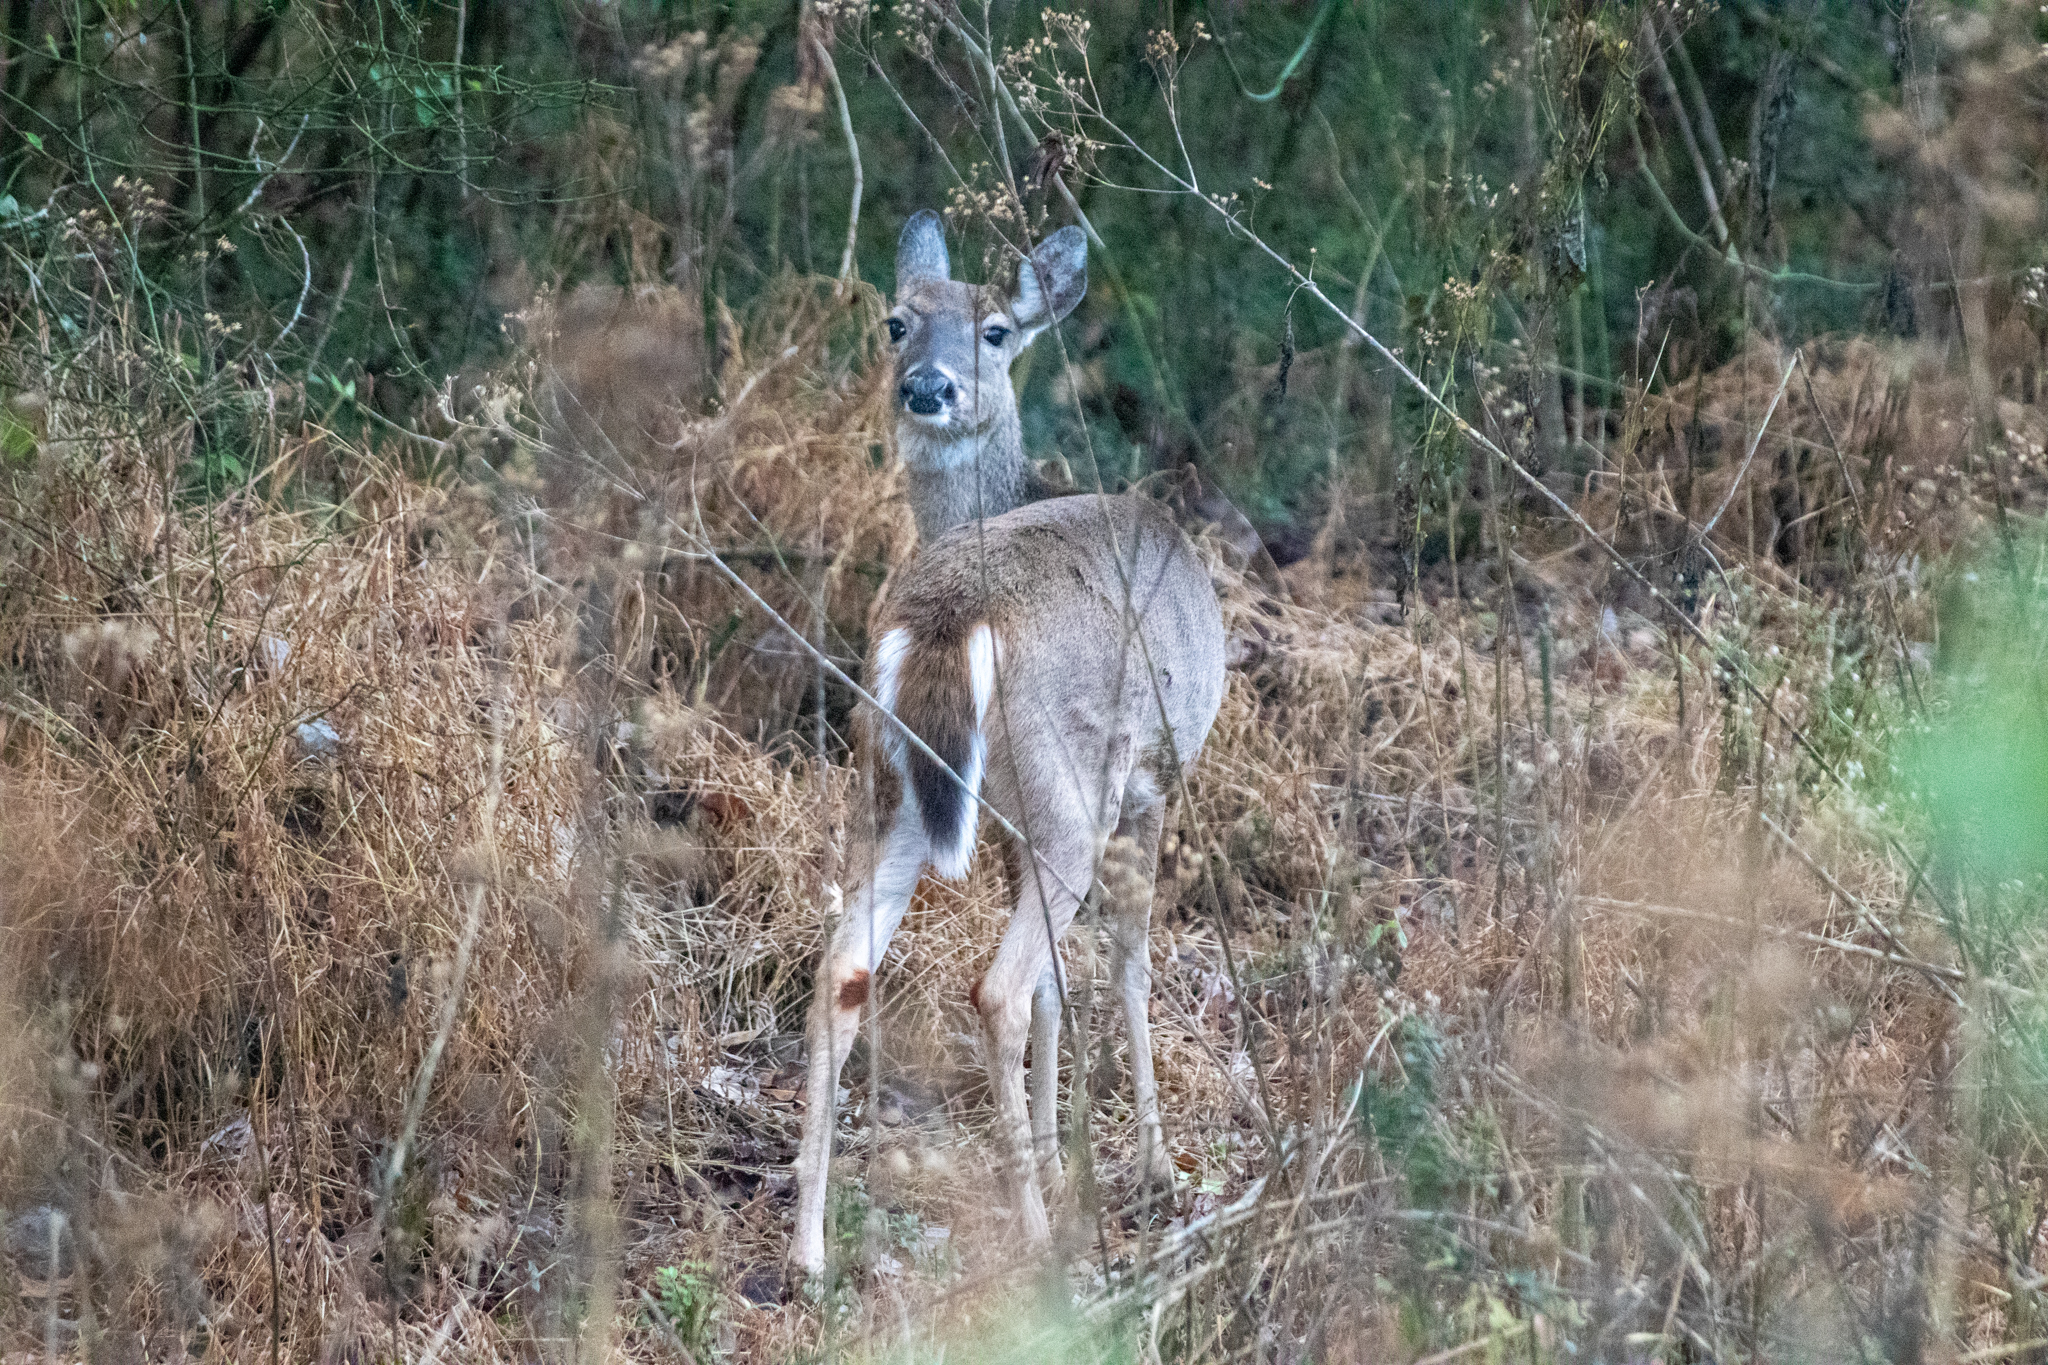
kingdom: Animalia
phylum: Chordata
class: Mammalia
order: Artiodactyla
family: Cervidae
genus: Odocoileus
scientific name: Odocoileus virginianus
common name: White-tailed deer
